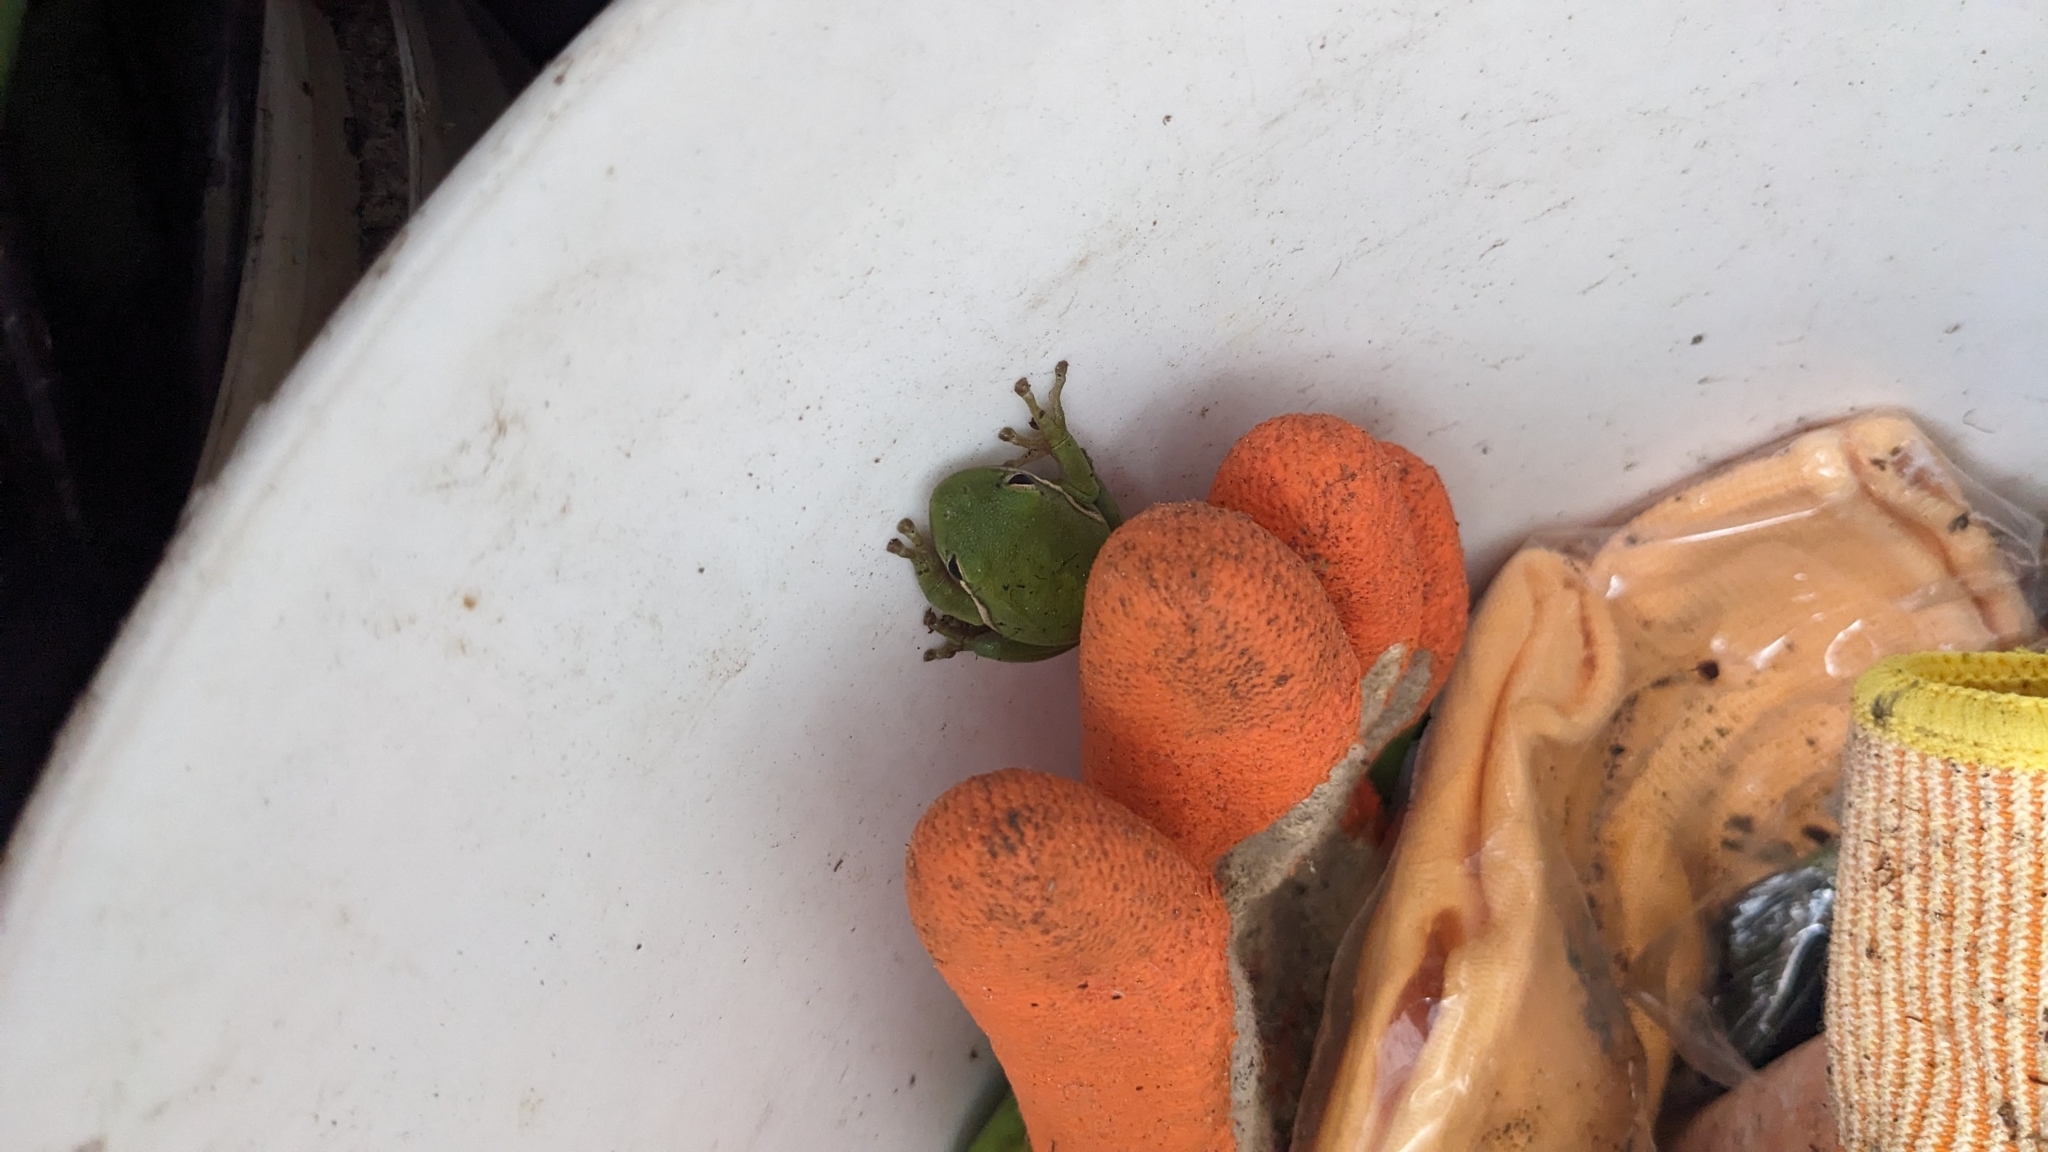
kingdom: Animalia
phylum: Chordata
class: Amphibia
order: Anura
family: Hylidae
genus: Dryophytes
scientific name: Dryophytes cinereus
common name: Green treefrog
